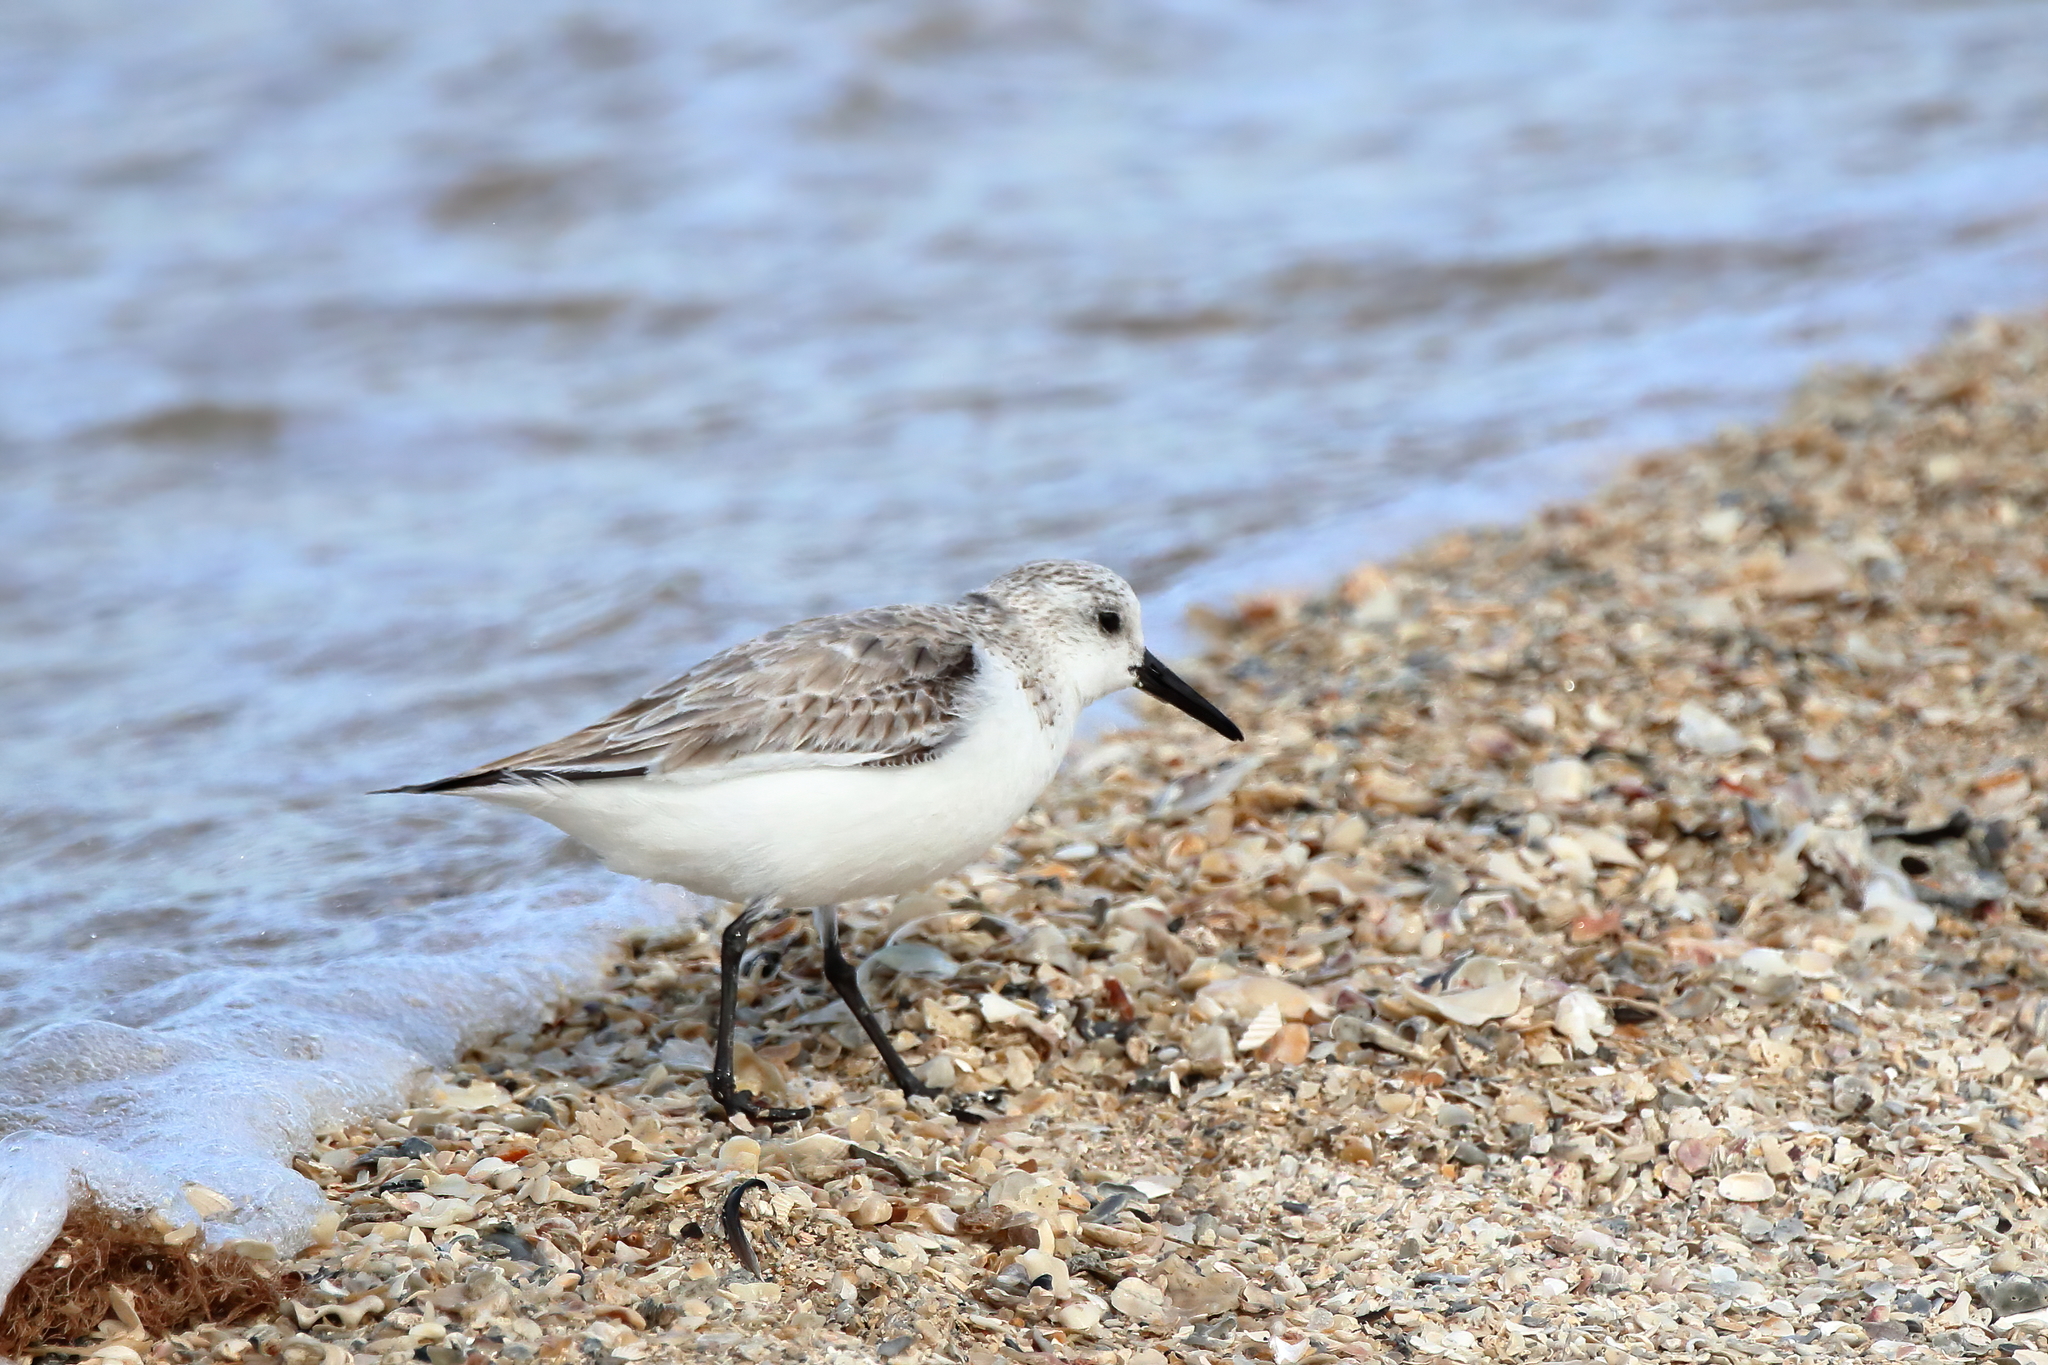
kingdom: Animalia
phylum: Chordata
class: Aves
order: Charadriiformes
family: Scolopacidae
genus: Calidris
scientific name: Calidris alba
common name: Sanderling
